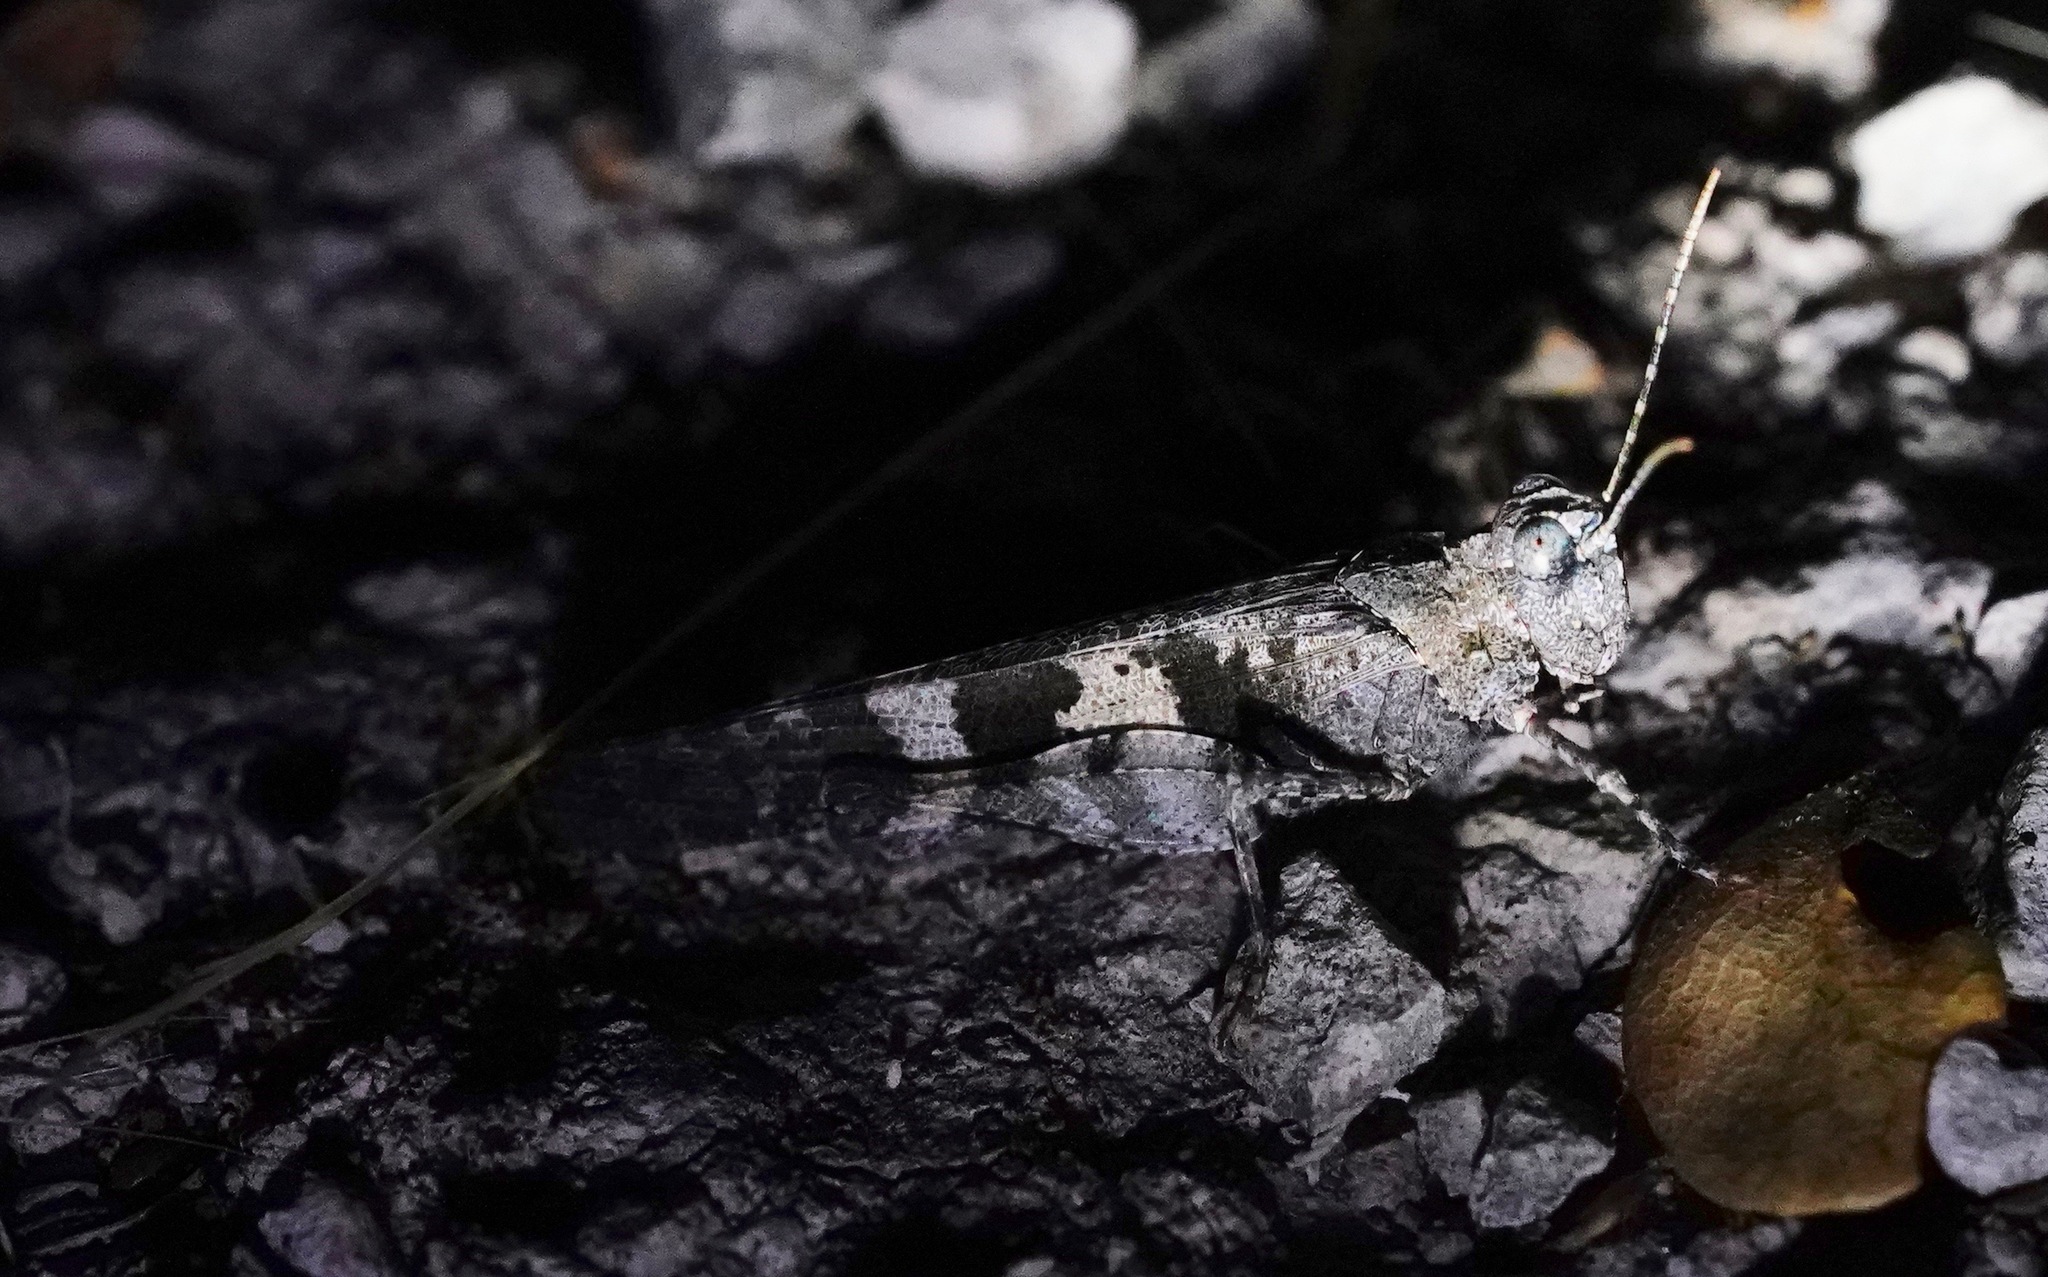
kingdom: Animalia
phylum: Arthropoda
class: Insecta
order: Orthoptera
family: Acrididae
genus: Trimerotropis
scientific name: Trimerotropis fontana
